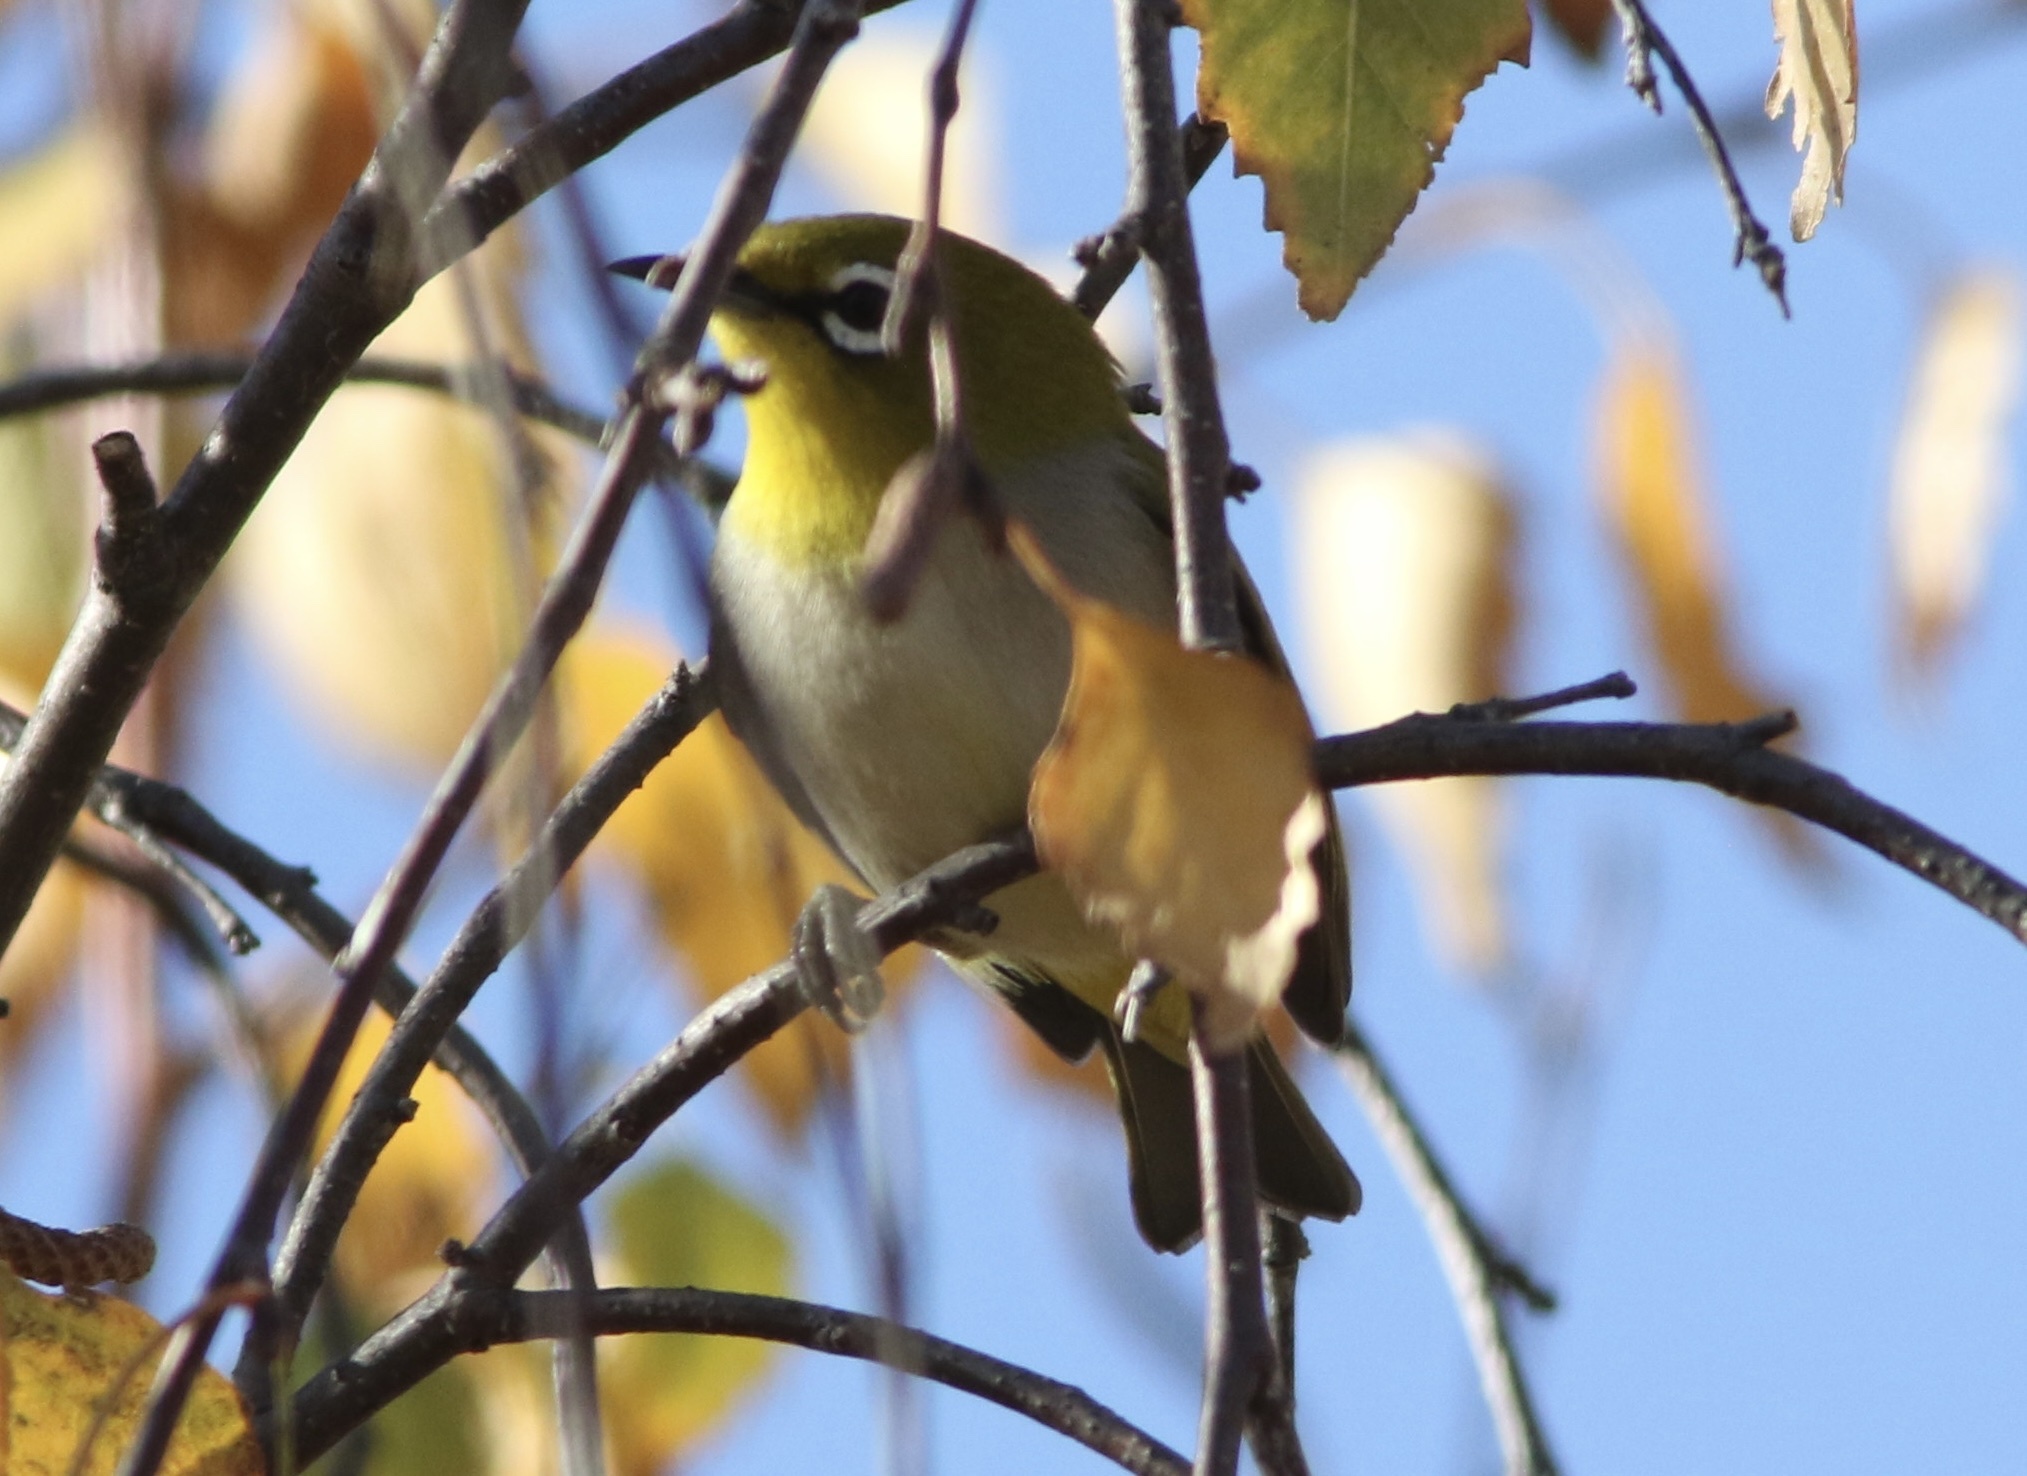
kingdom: Animalia
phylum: Chordata
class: Aves
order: Passeriformes
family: Zosteropidae
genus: Zosterops
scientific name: Zosterops simplex
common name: Swinhoe's white-eye
